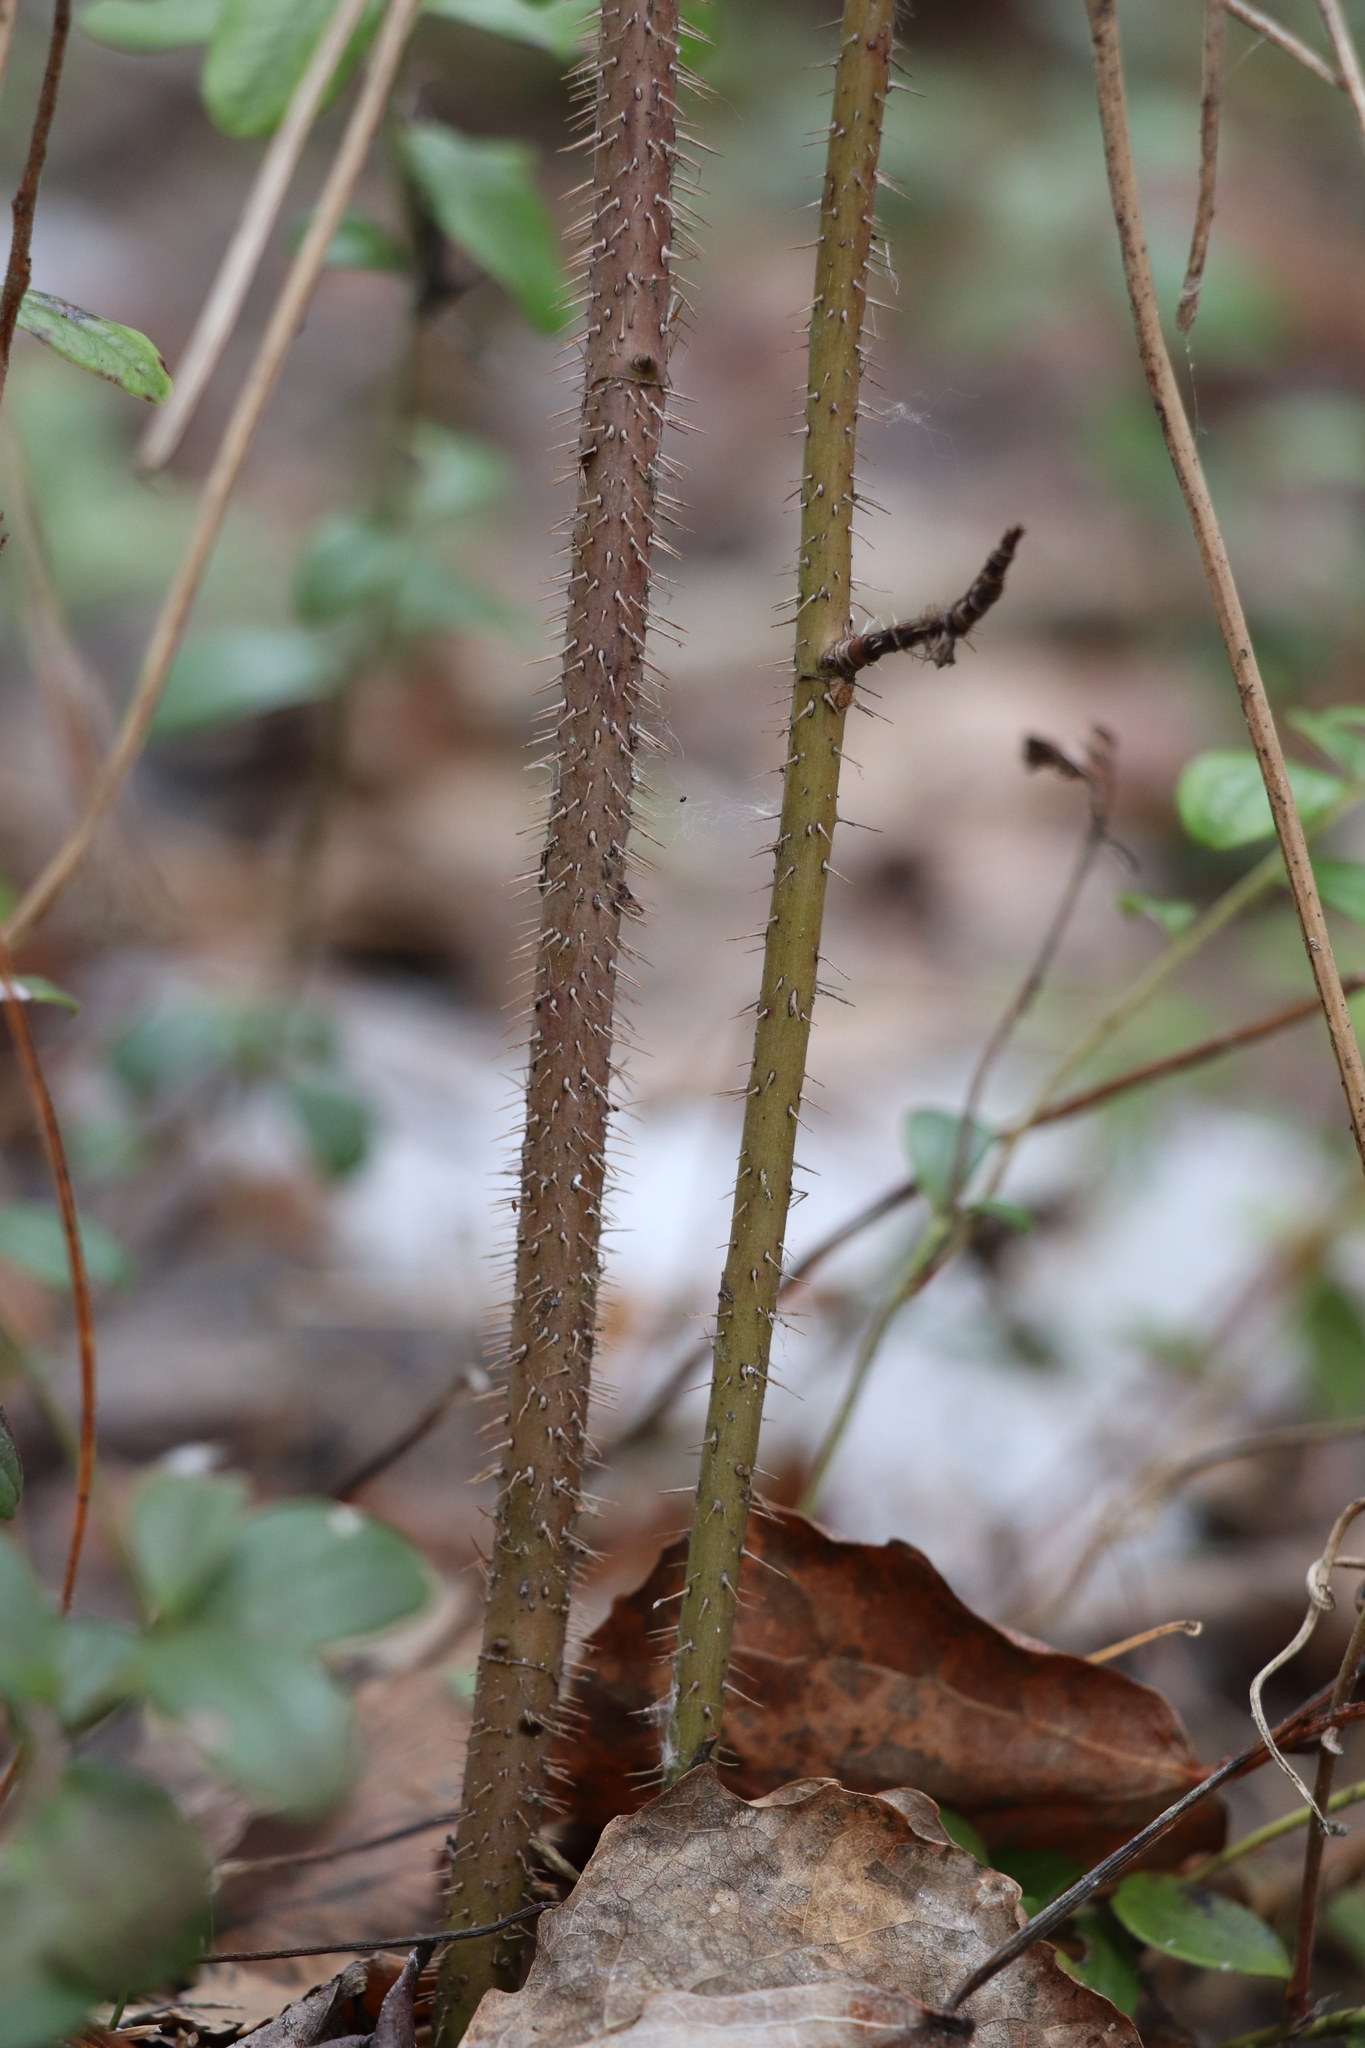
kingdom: Plantae
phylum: Tracheophyta
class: Magnoliopsida
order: Rosales
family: Rosaceae
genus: Rosa
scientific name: Rosa acicularis
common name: Prickly rose
